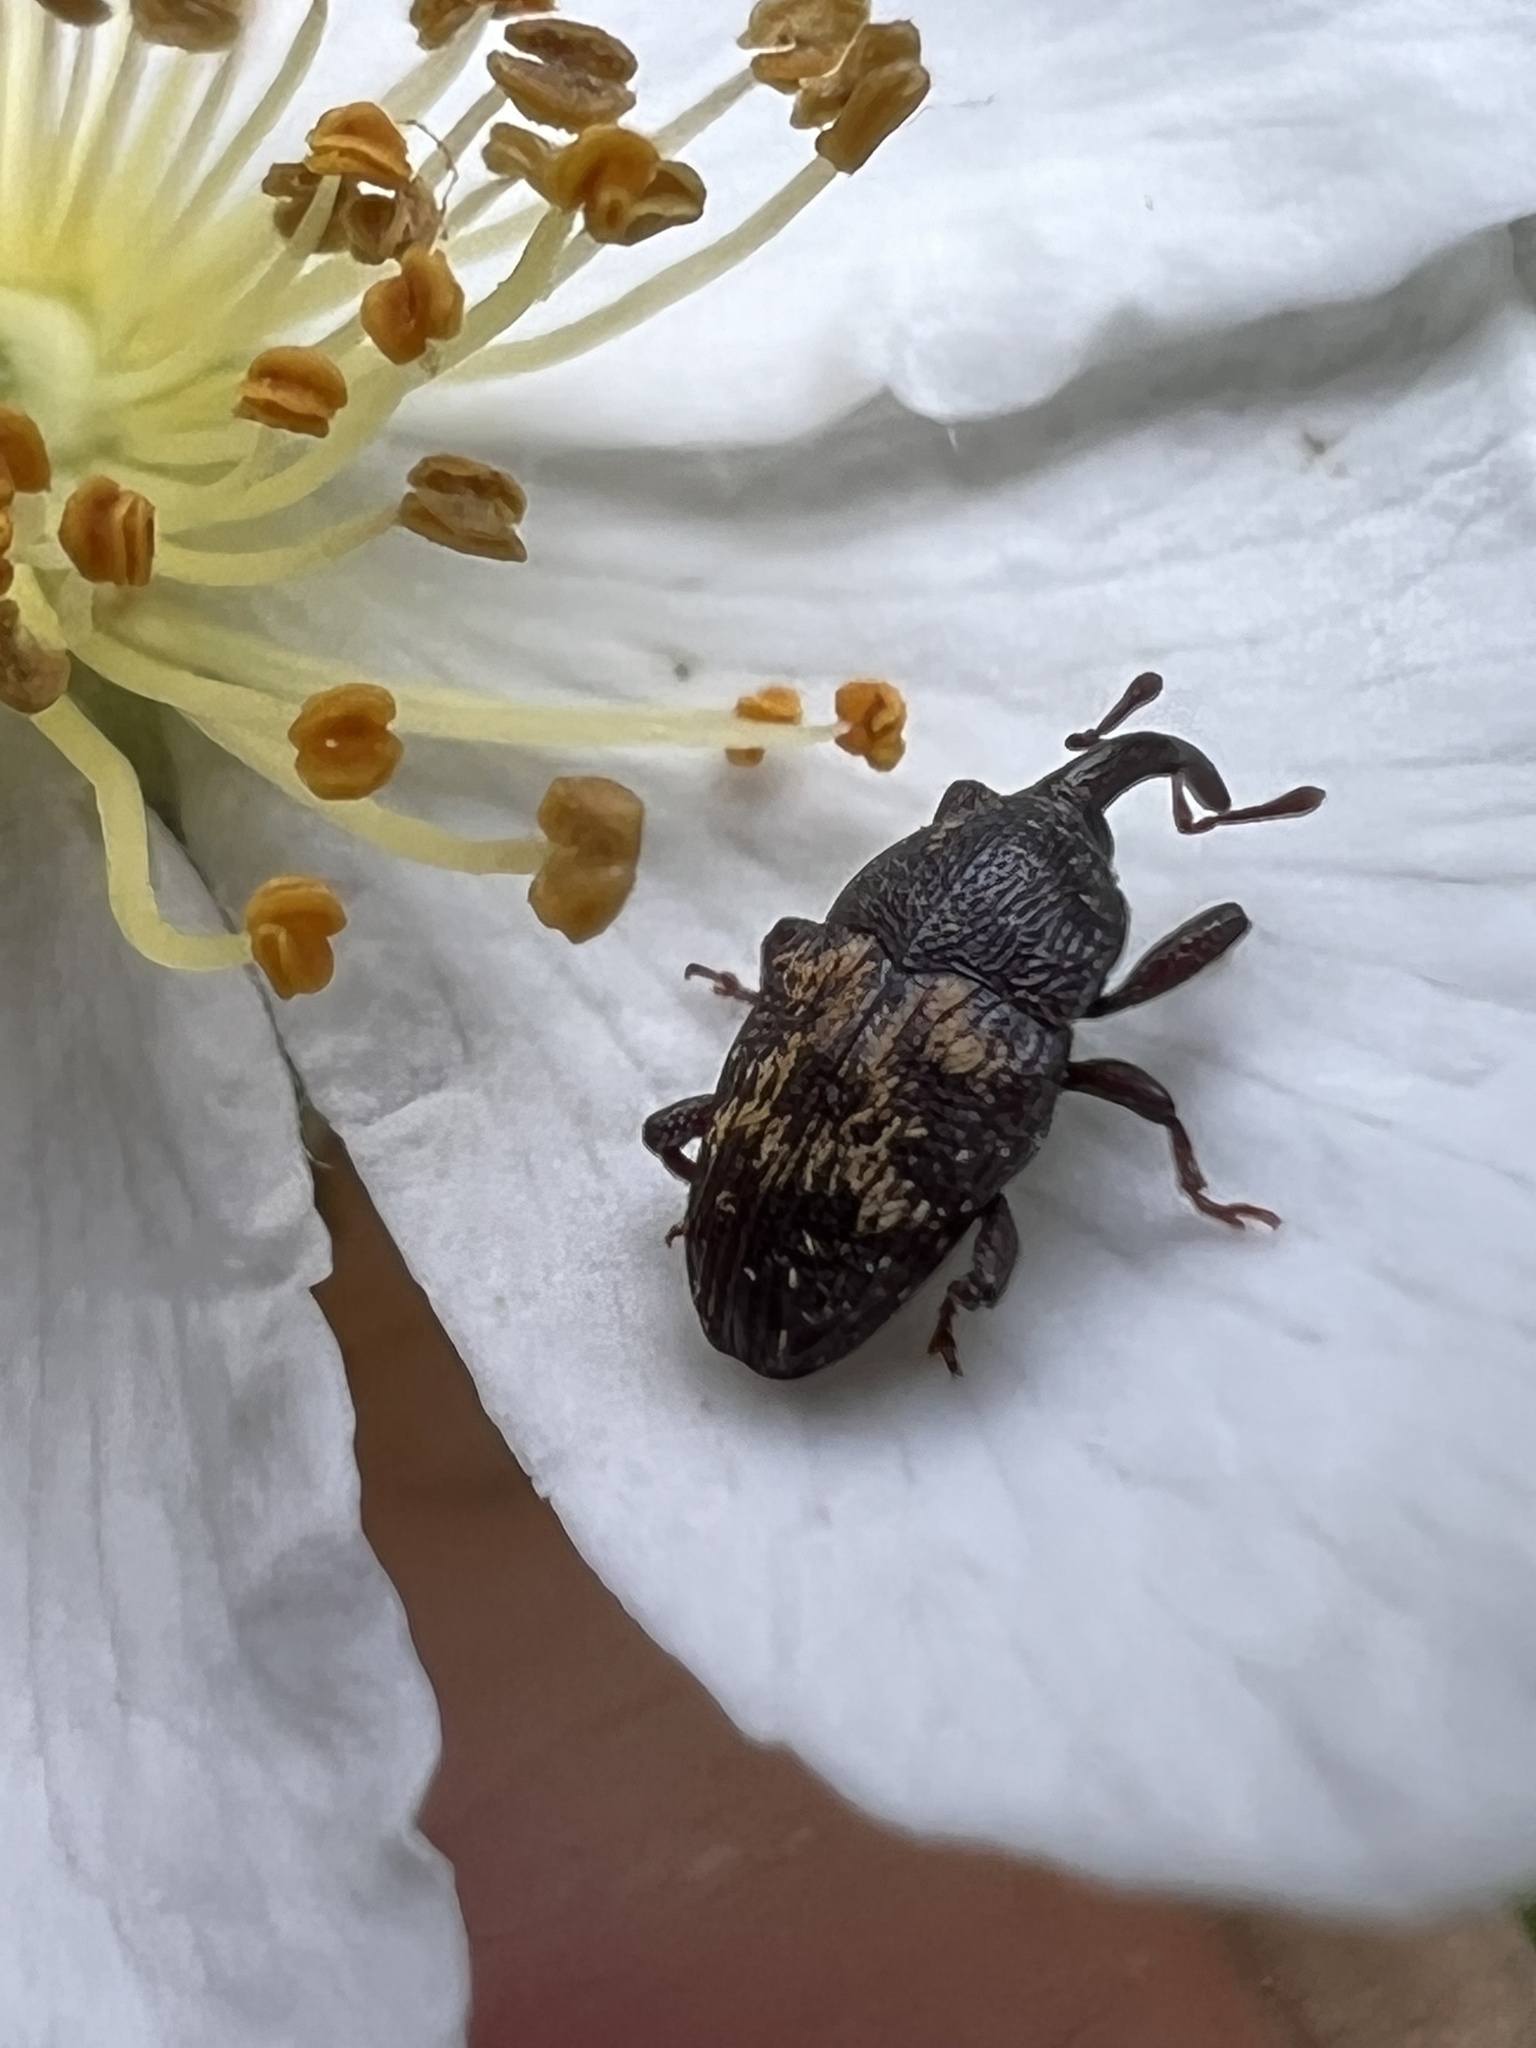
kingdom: Animalia
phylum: Arthropoda
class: Insecta
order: Coleoptera
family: Curculionidae
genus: Glyptobaris
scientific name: Glyptobaris lecontei
